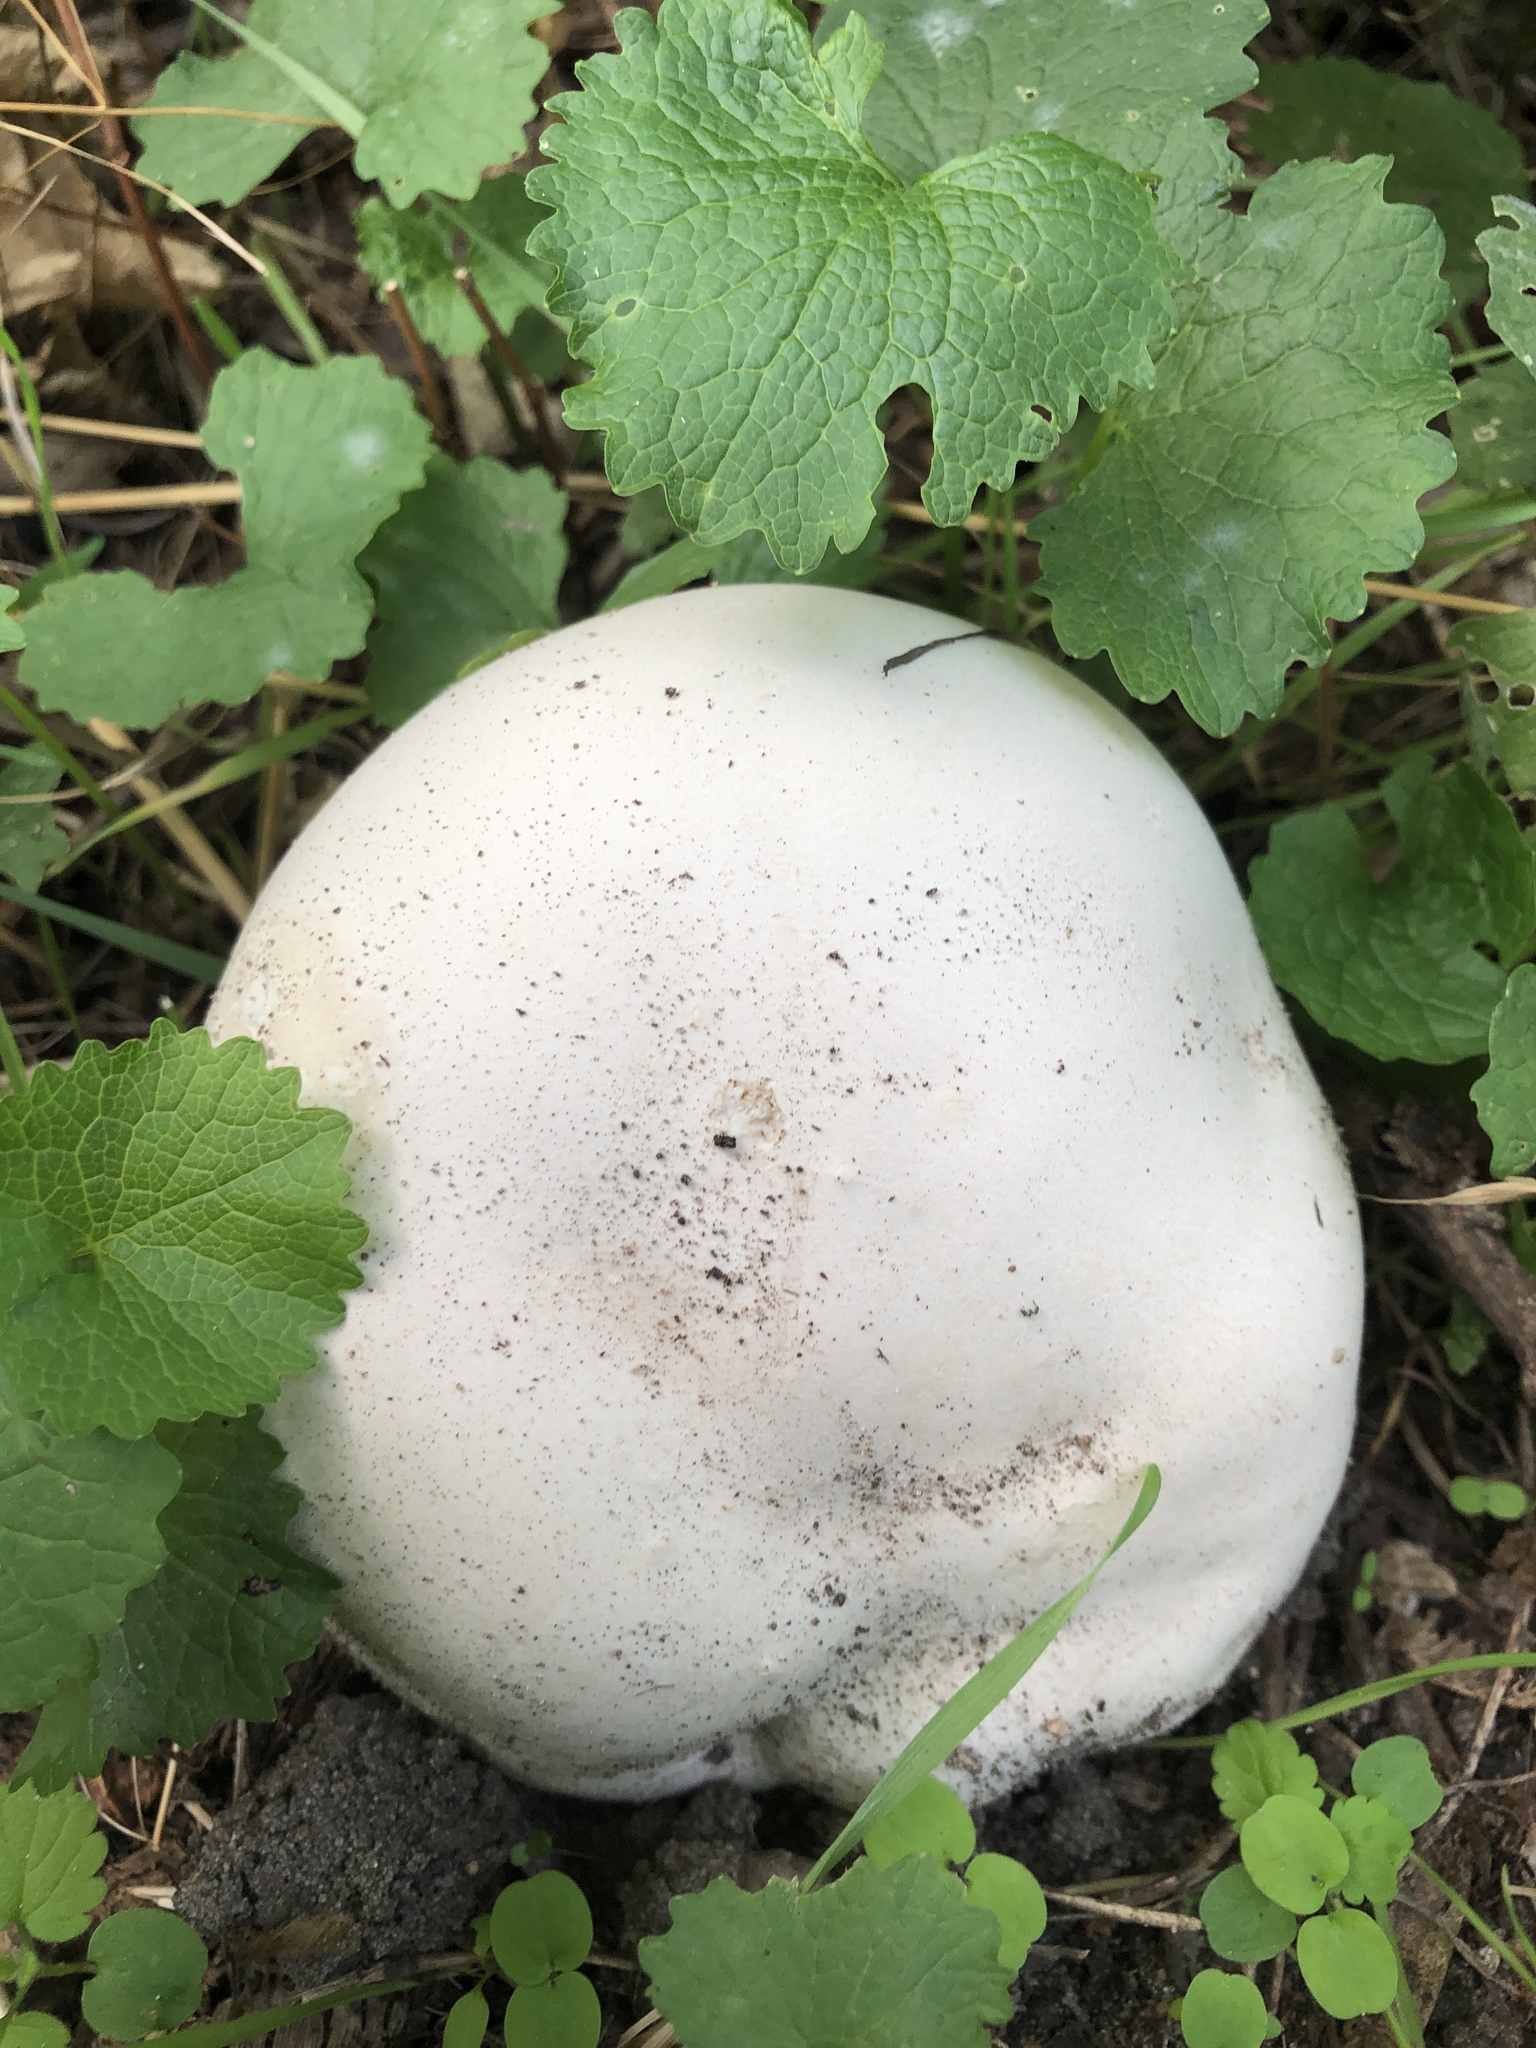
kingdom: Fungi
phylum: Basidiomycota
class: Agaricomycetes
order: Agaricales
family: Lycoperdaceae
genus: Calvatia
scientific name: Calvatia gigantea
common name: Giant puffball
